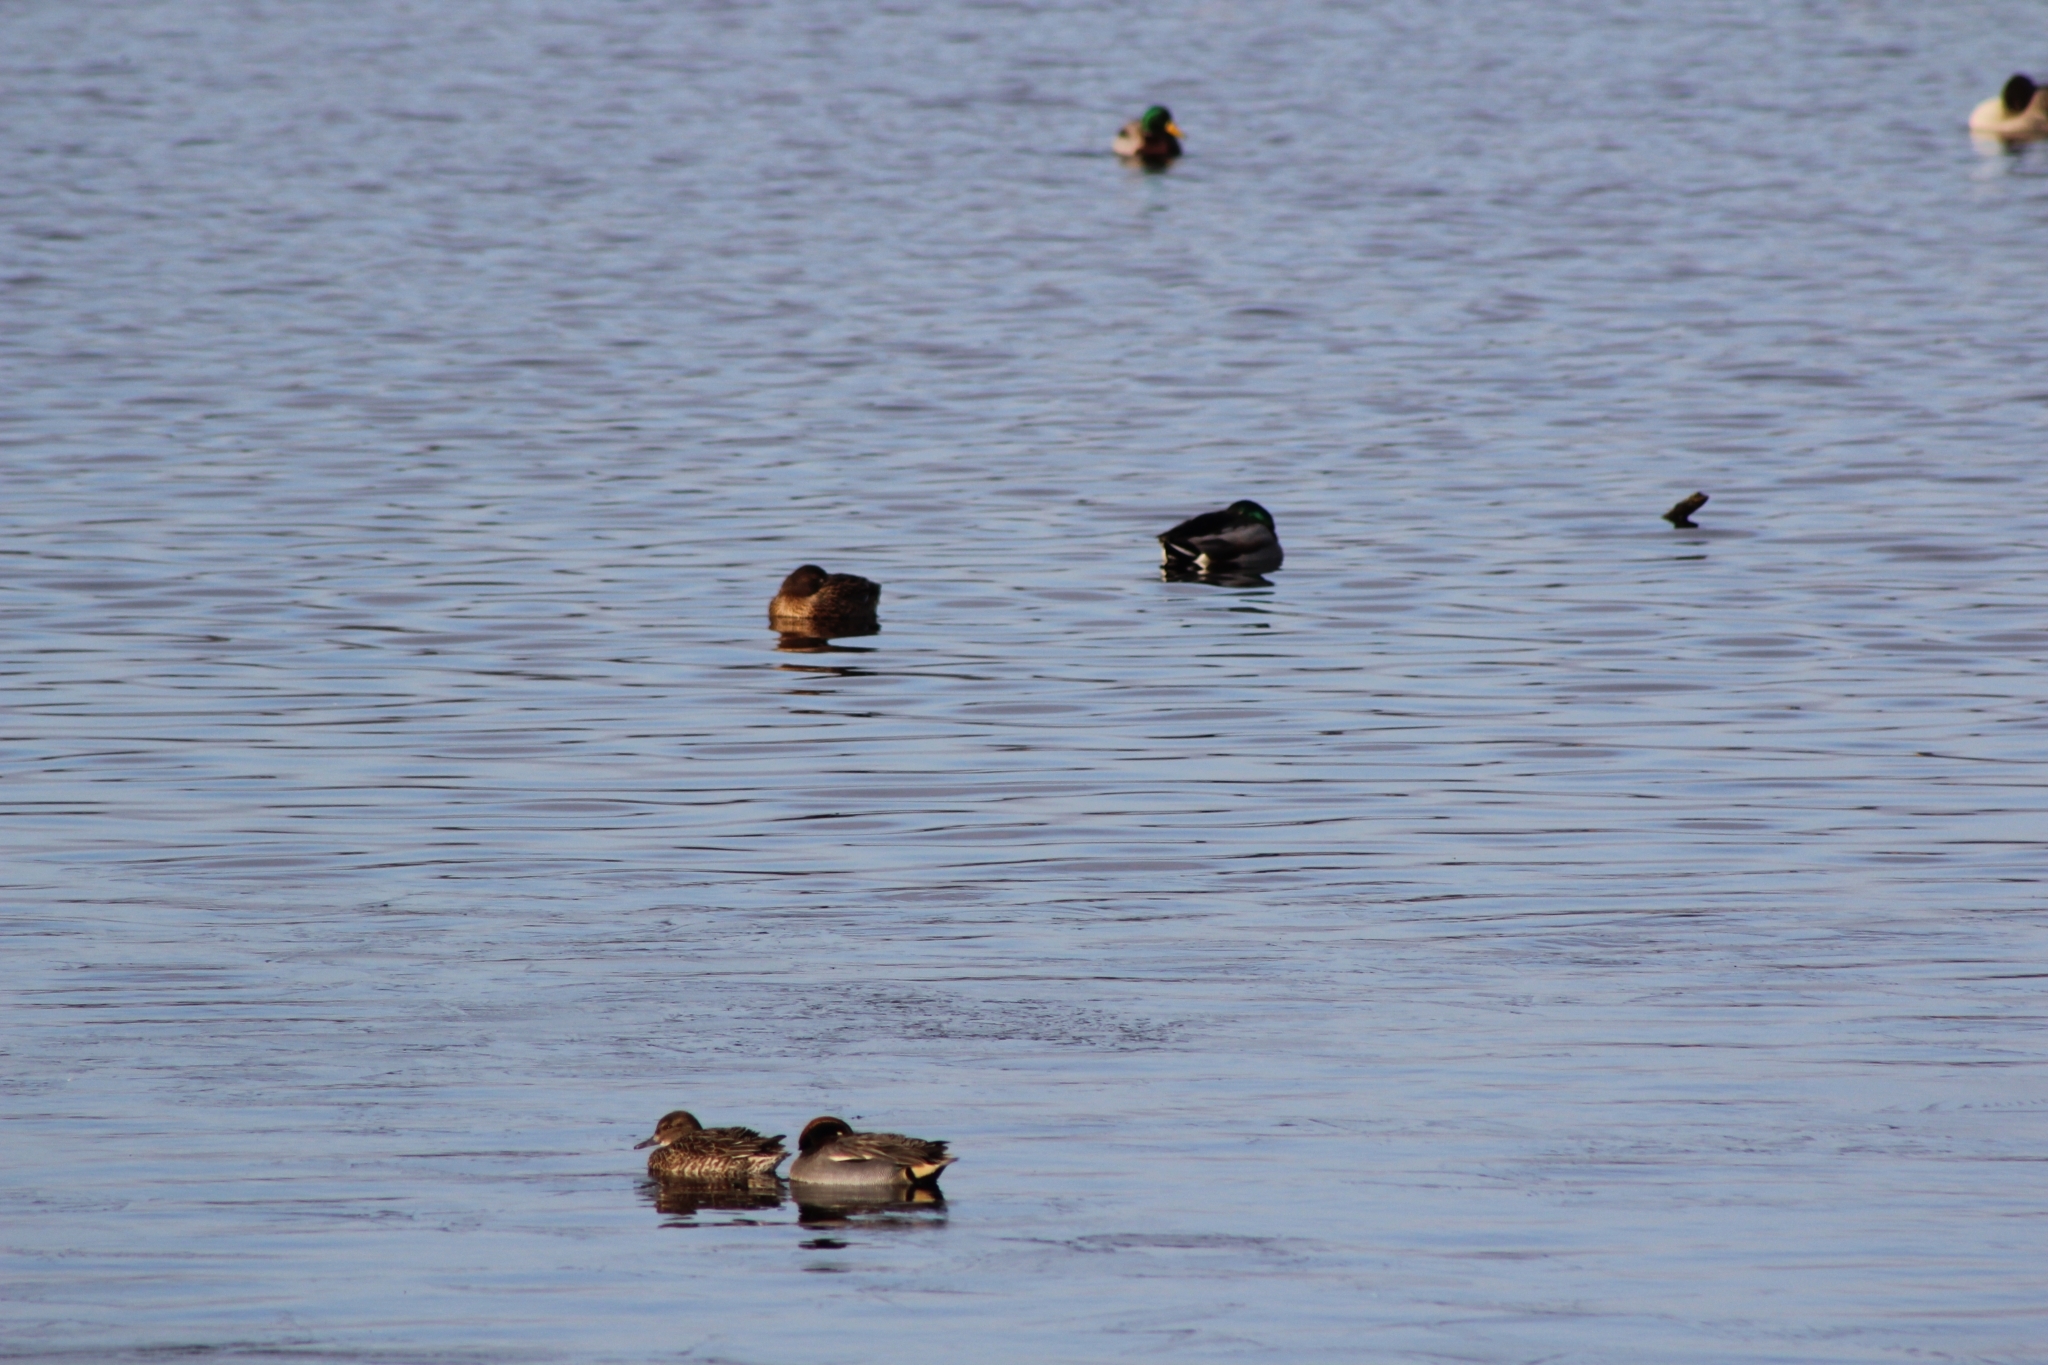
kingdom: Animalia
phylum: Chordata
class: Aves
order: Anseriformes
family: Anatidae
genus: Anas
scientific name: Anas crecca
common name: Eurasian teal
